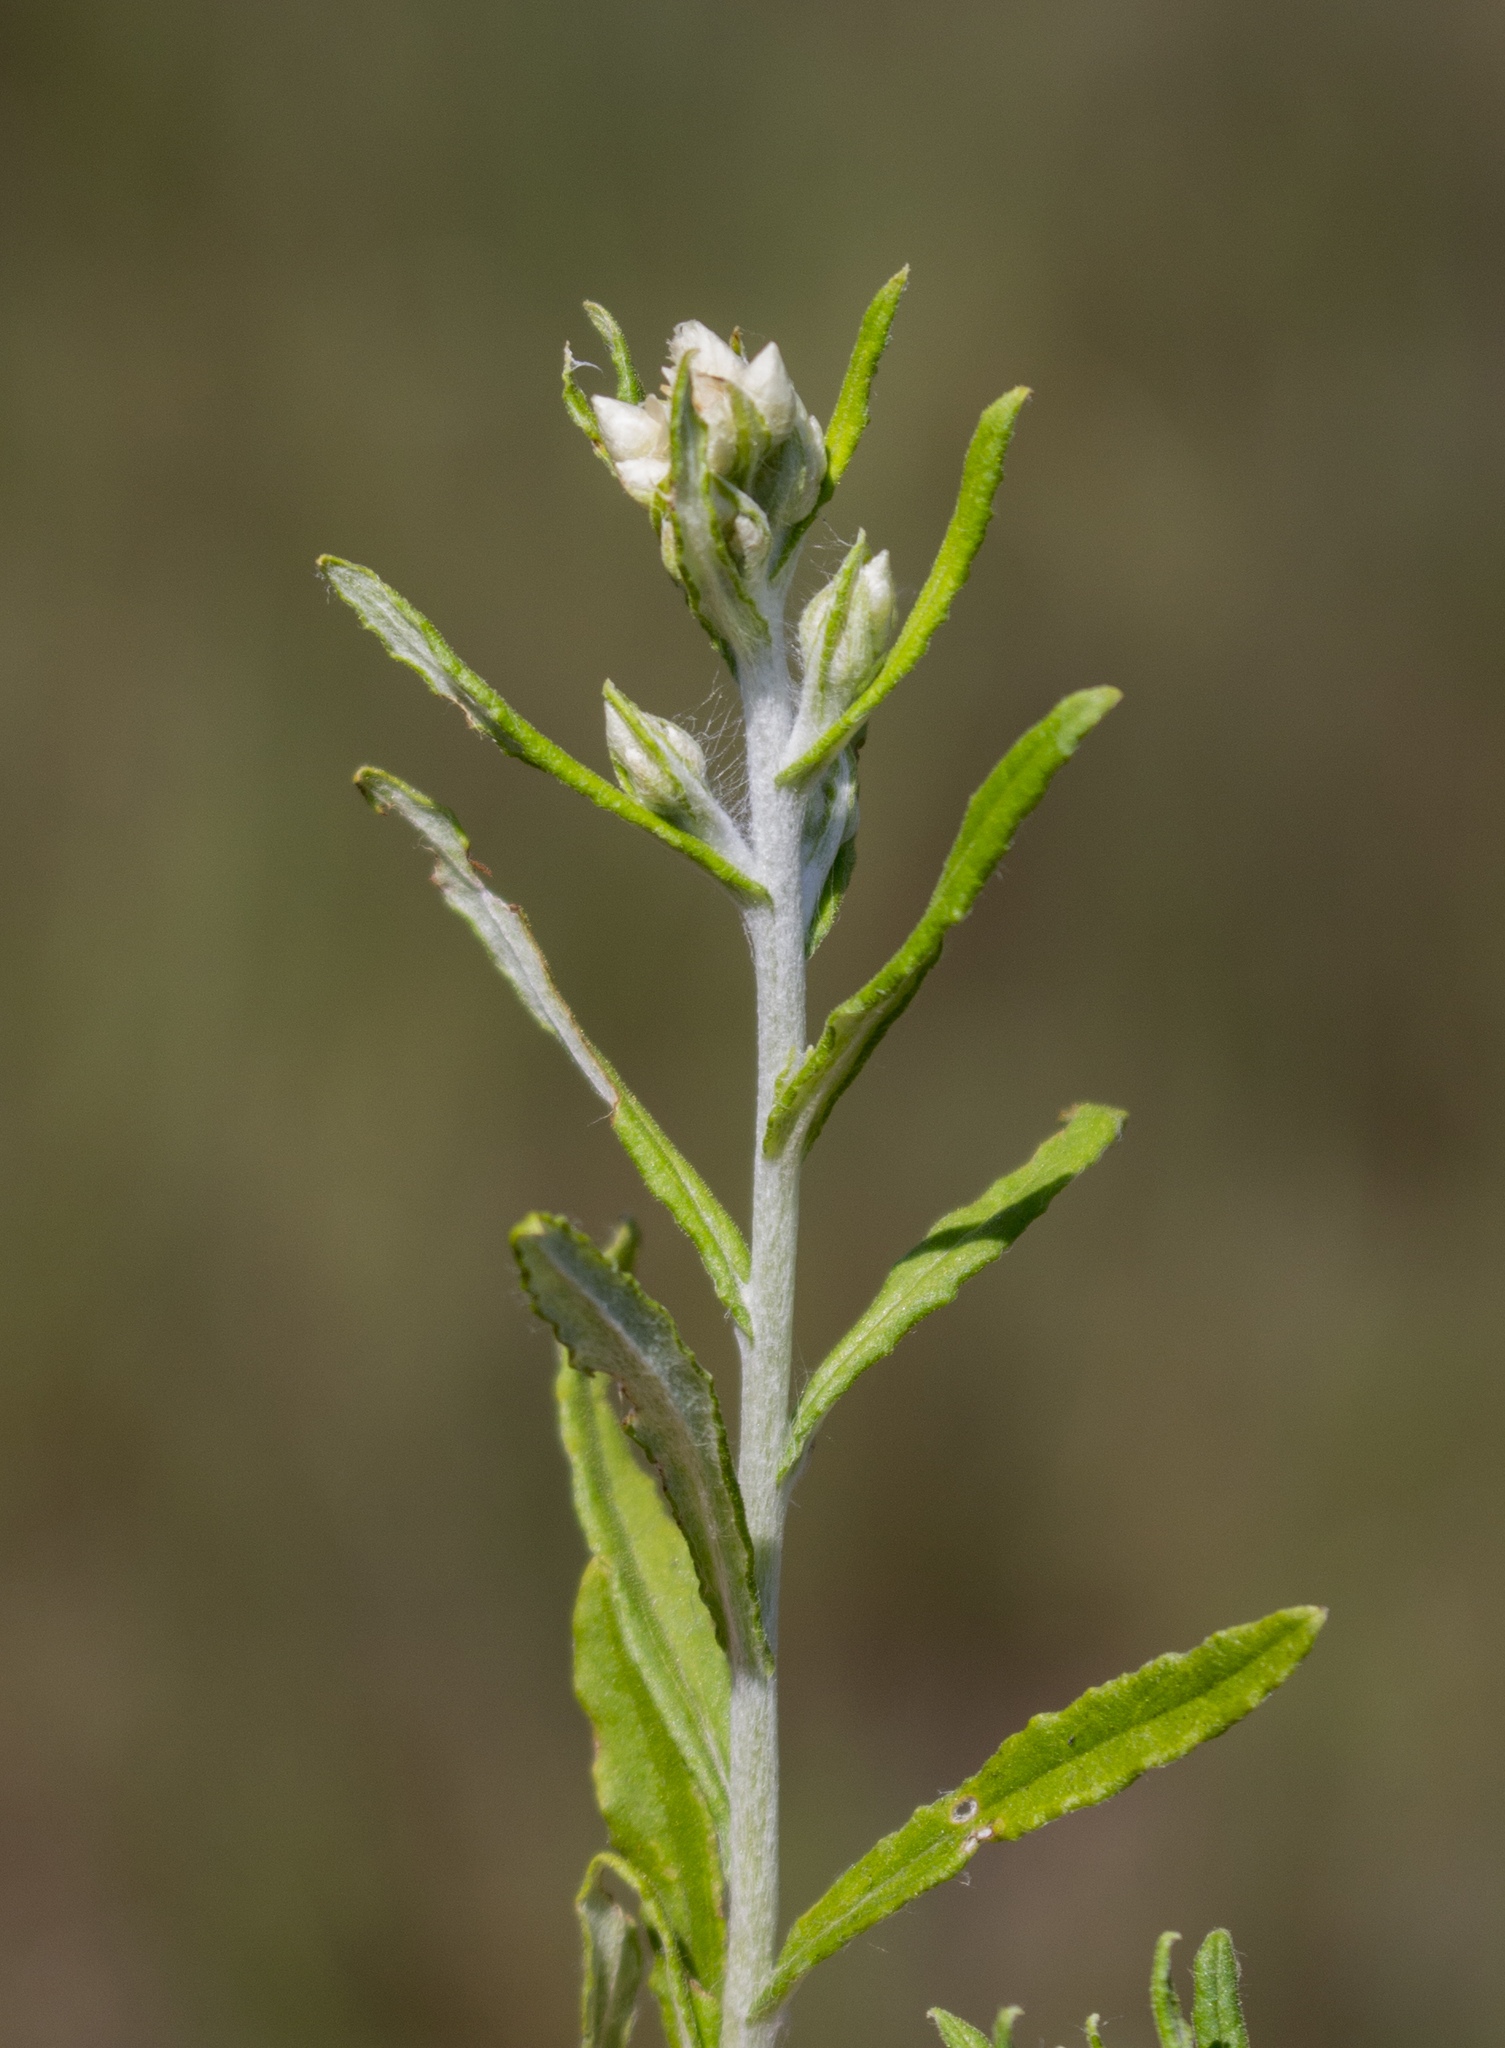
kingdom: Plantae
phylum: Tracheophyta
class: Magnoliopsida
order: Asterales
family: Asteraceae
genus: Pseudognaphalium
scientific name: Pseudognaphalium obtusifolium
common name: Eastern rabbit-tobacco
